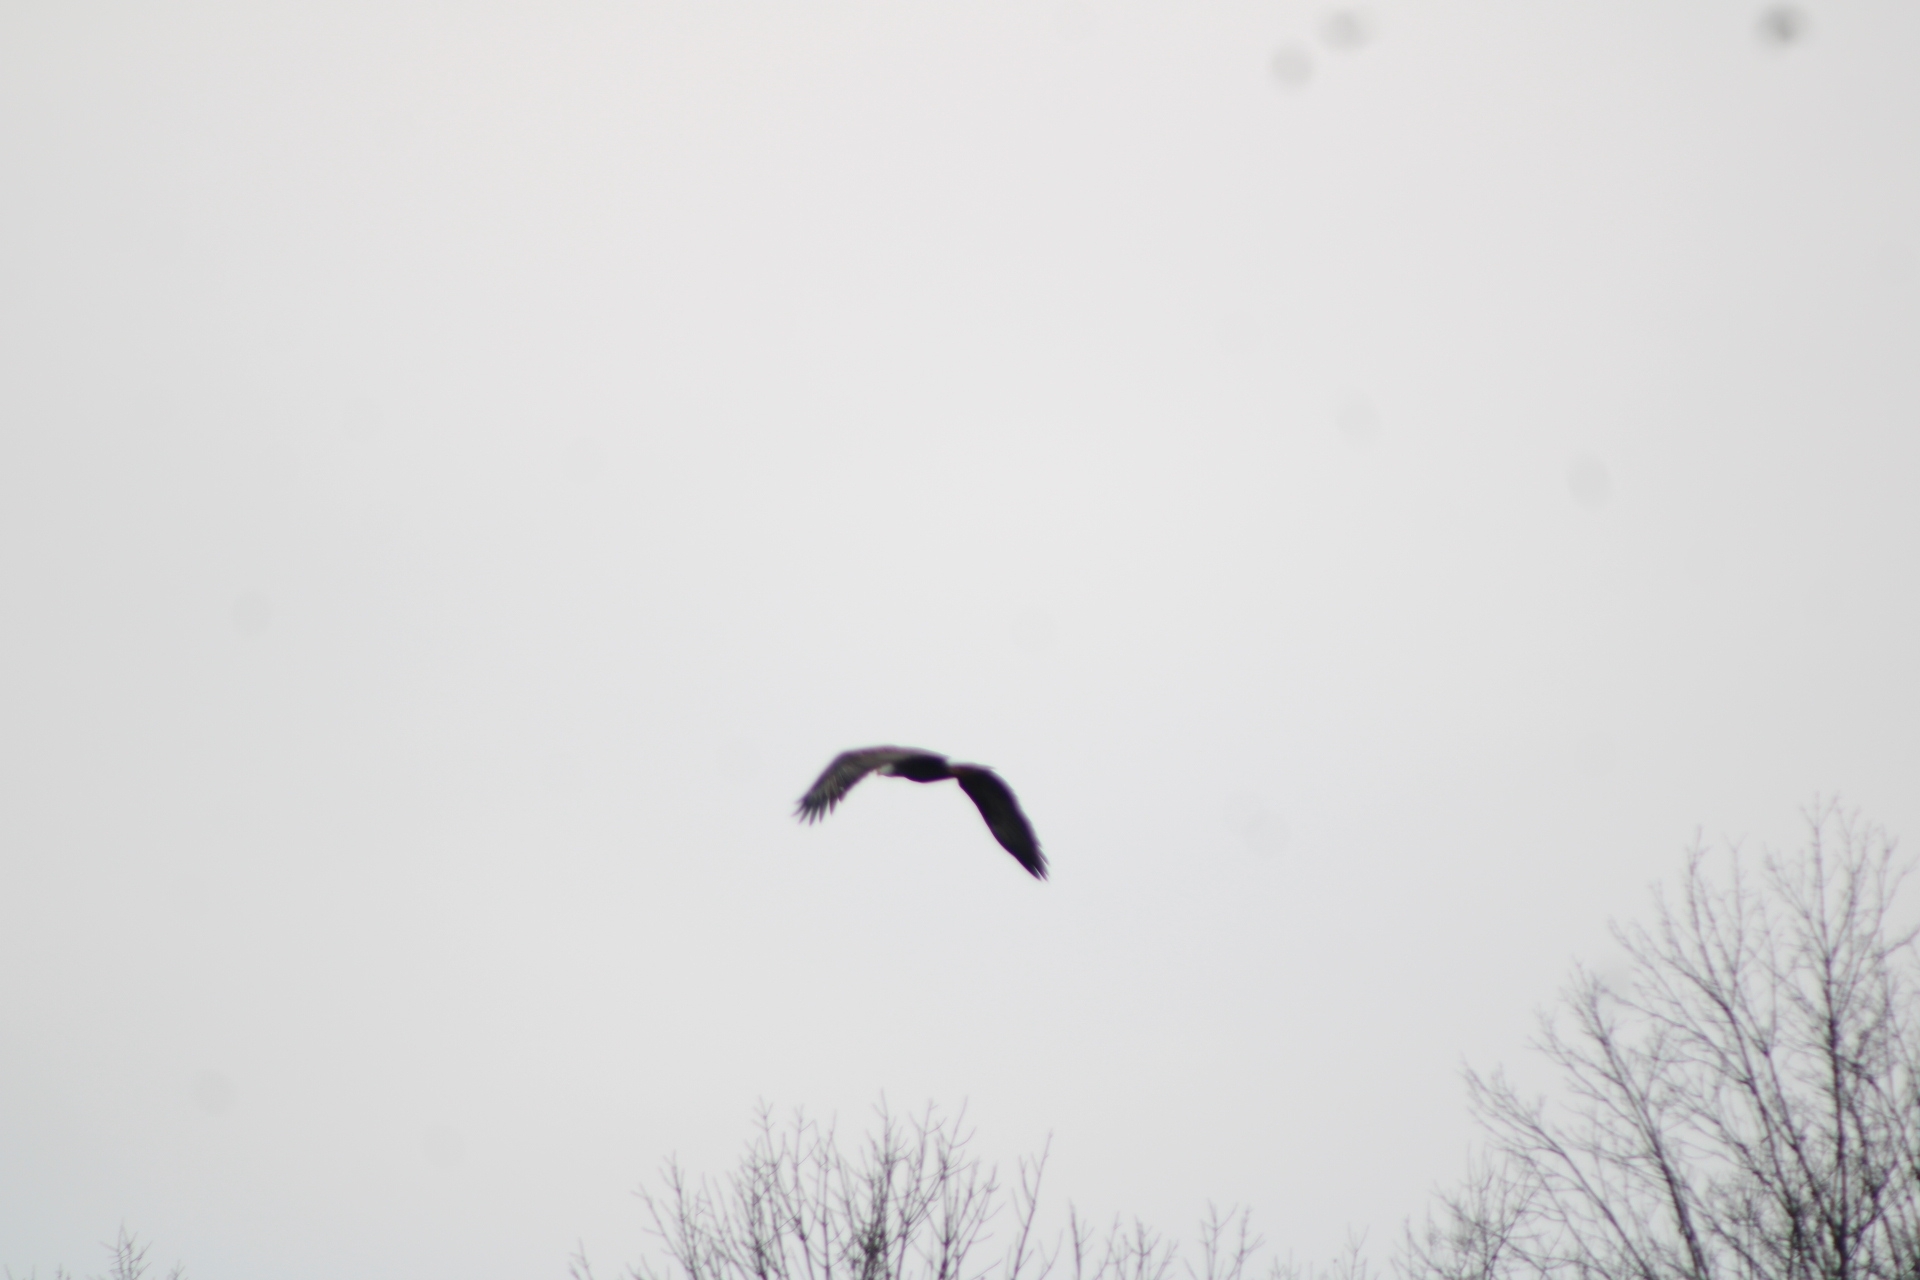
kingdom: Animalia
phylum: Chordata
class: Aves
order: Accipitriformes
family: Accipitridae
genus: Haliaeetus
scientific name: Haliaeetus leucocephalus
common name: Bald eagle
